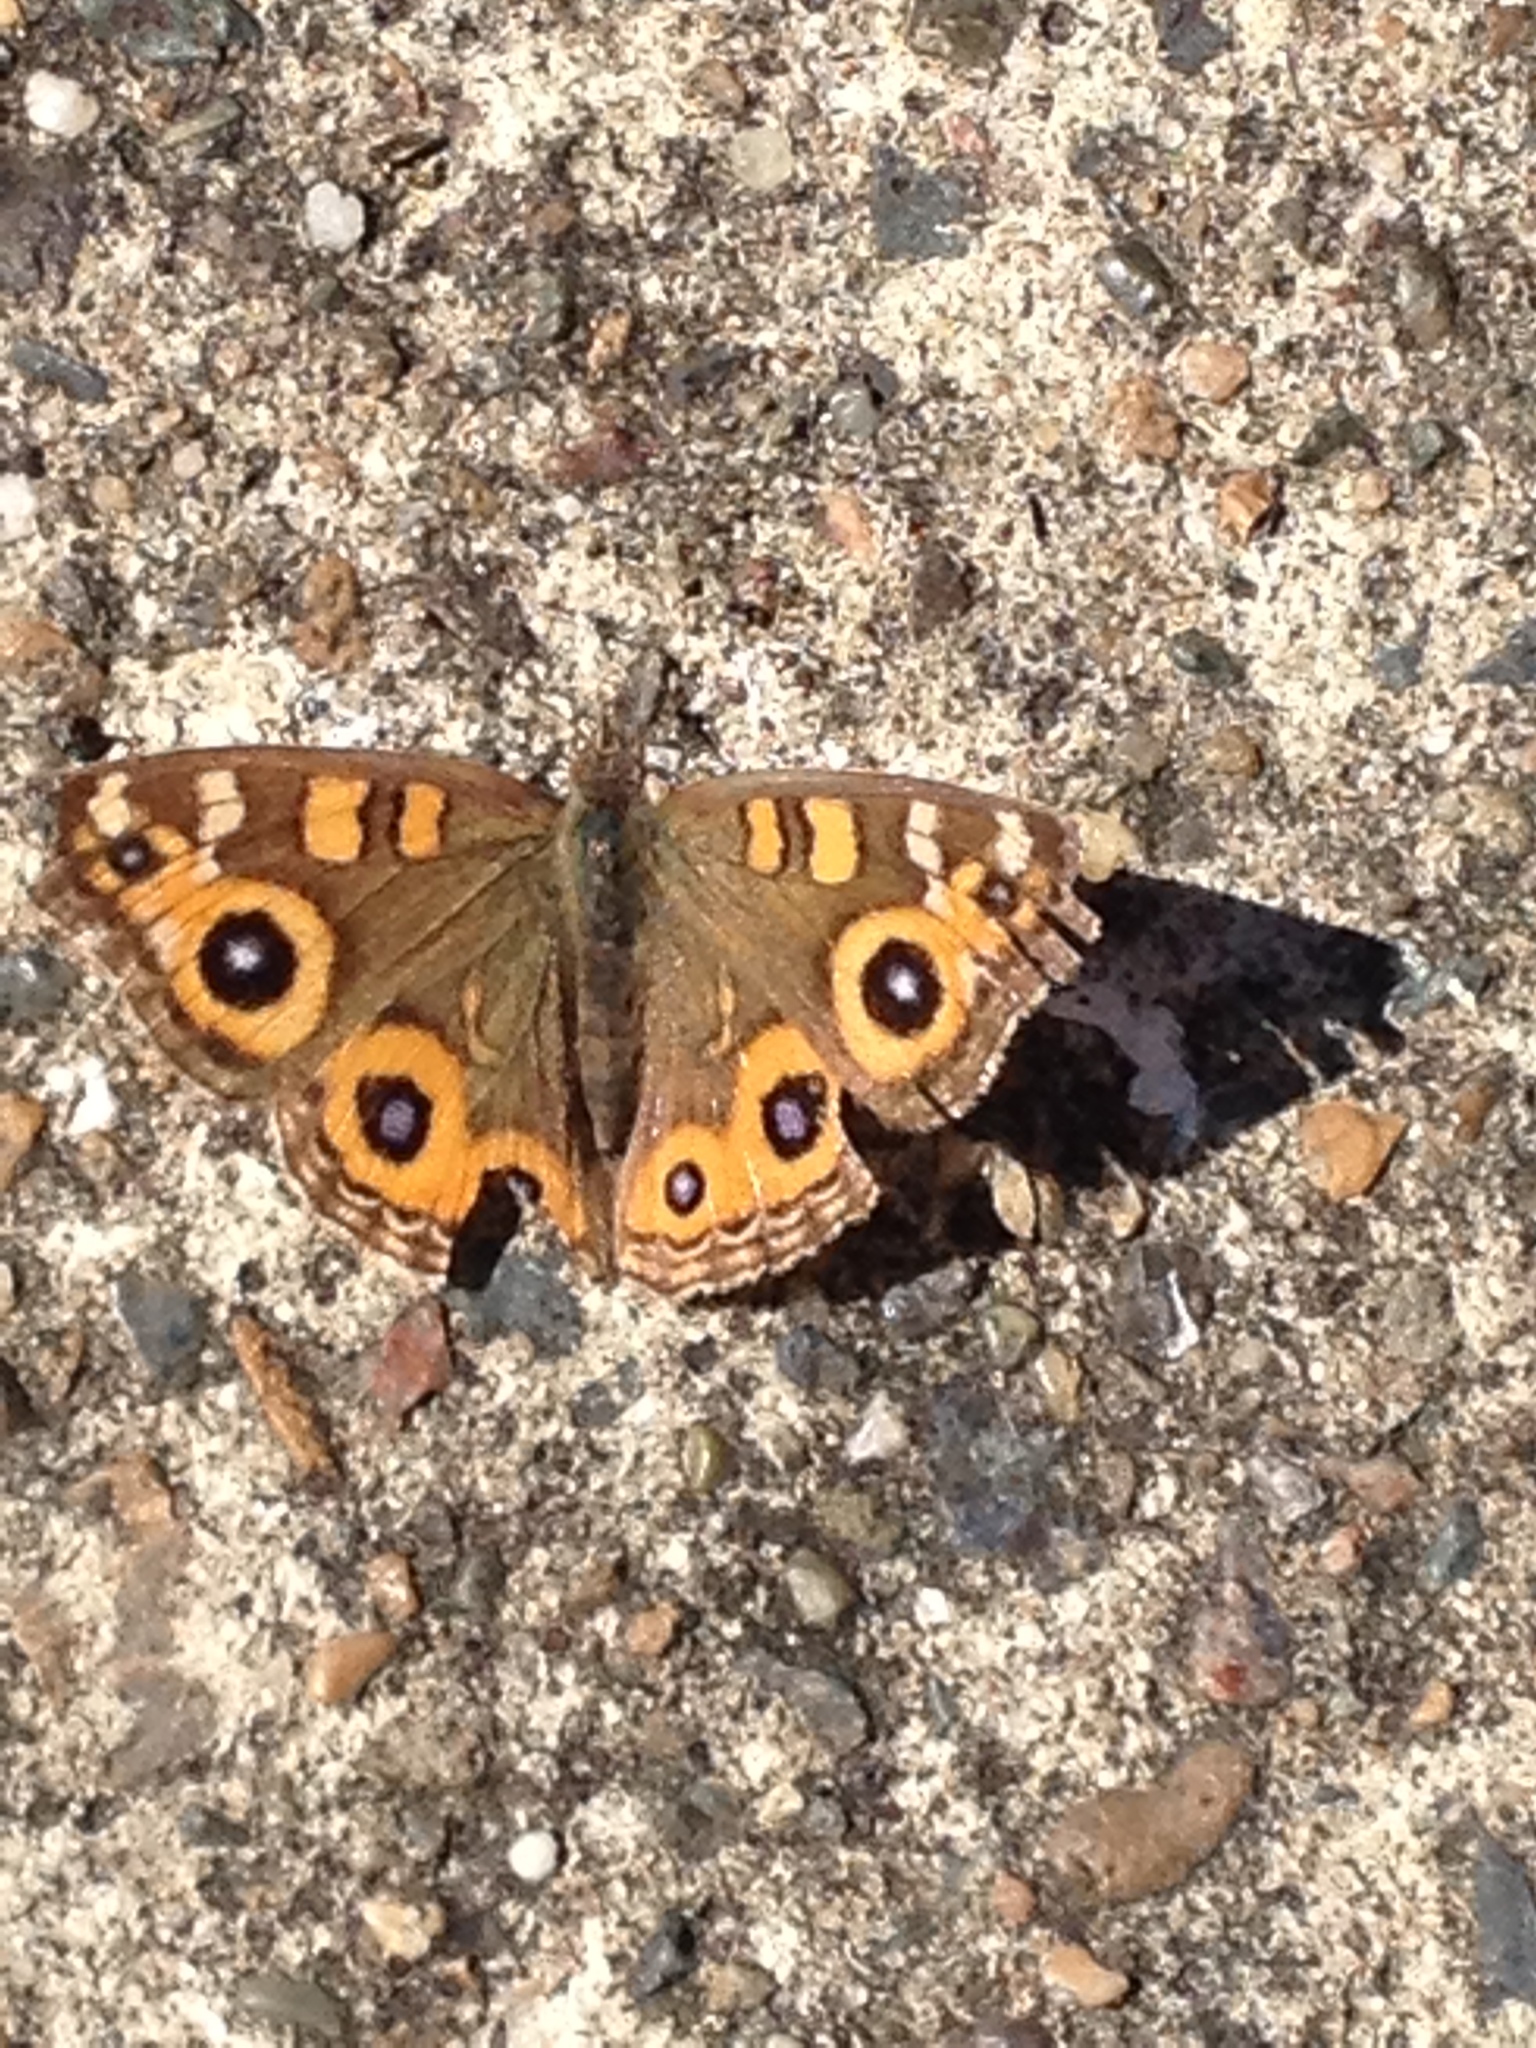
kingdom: Animalia
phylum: Arthropoda
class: Insecta
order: Lepidoptera
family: Nymphalidae
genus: Junonia
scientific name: Junonia villida
